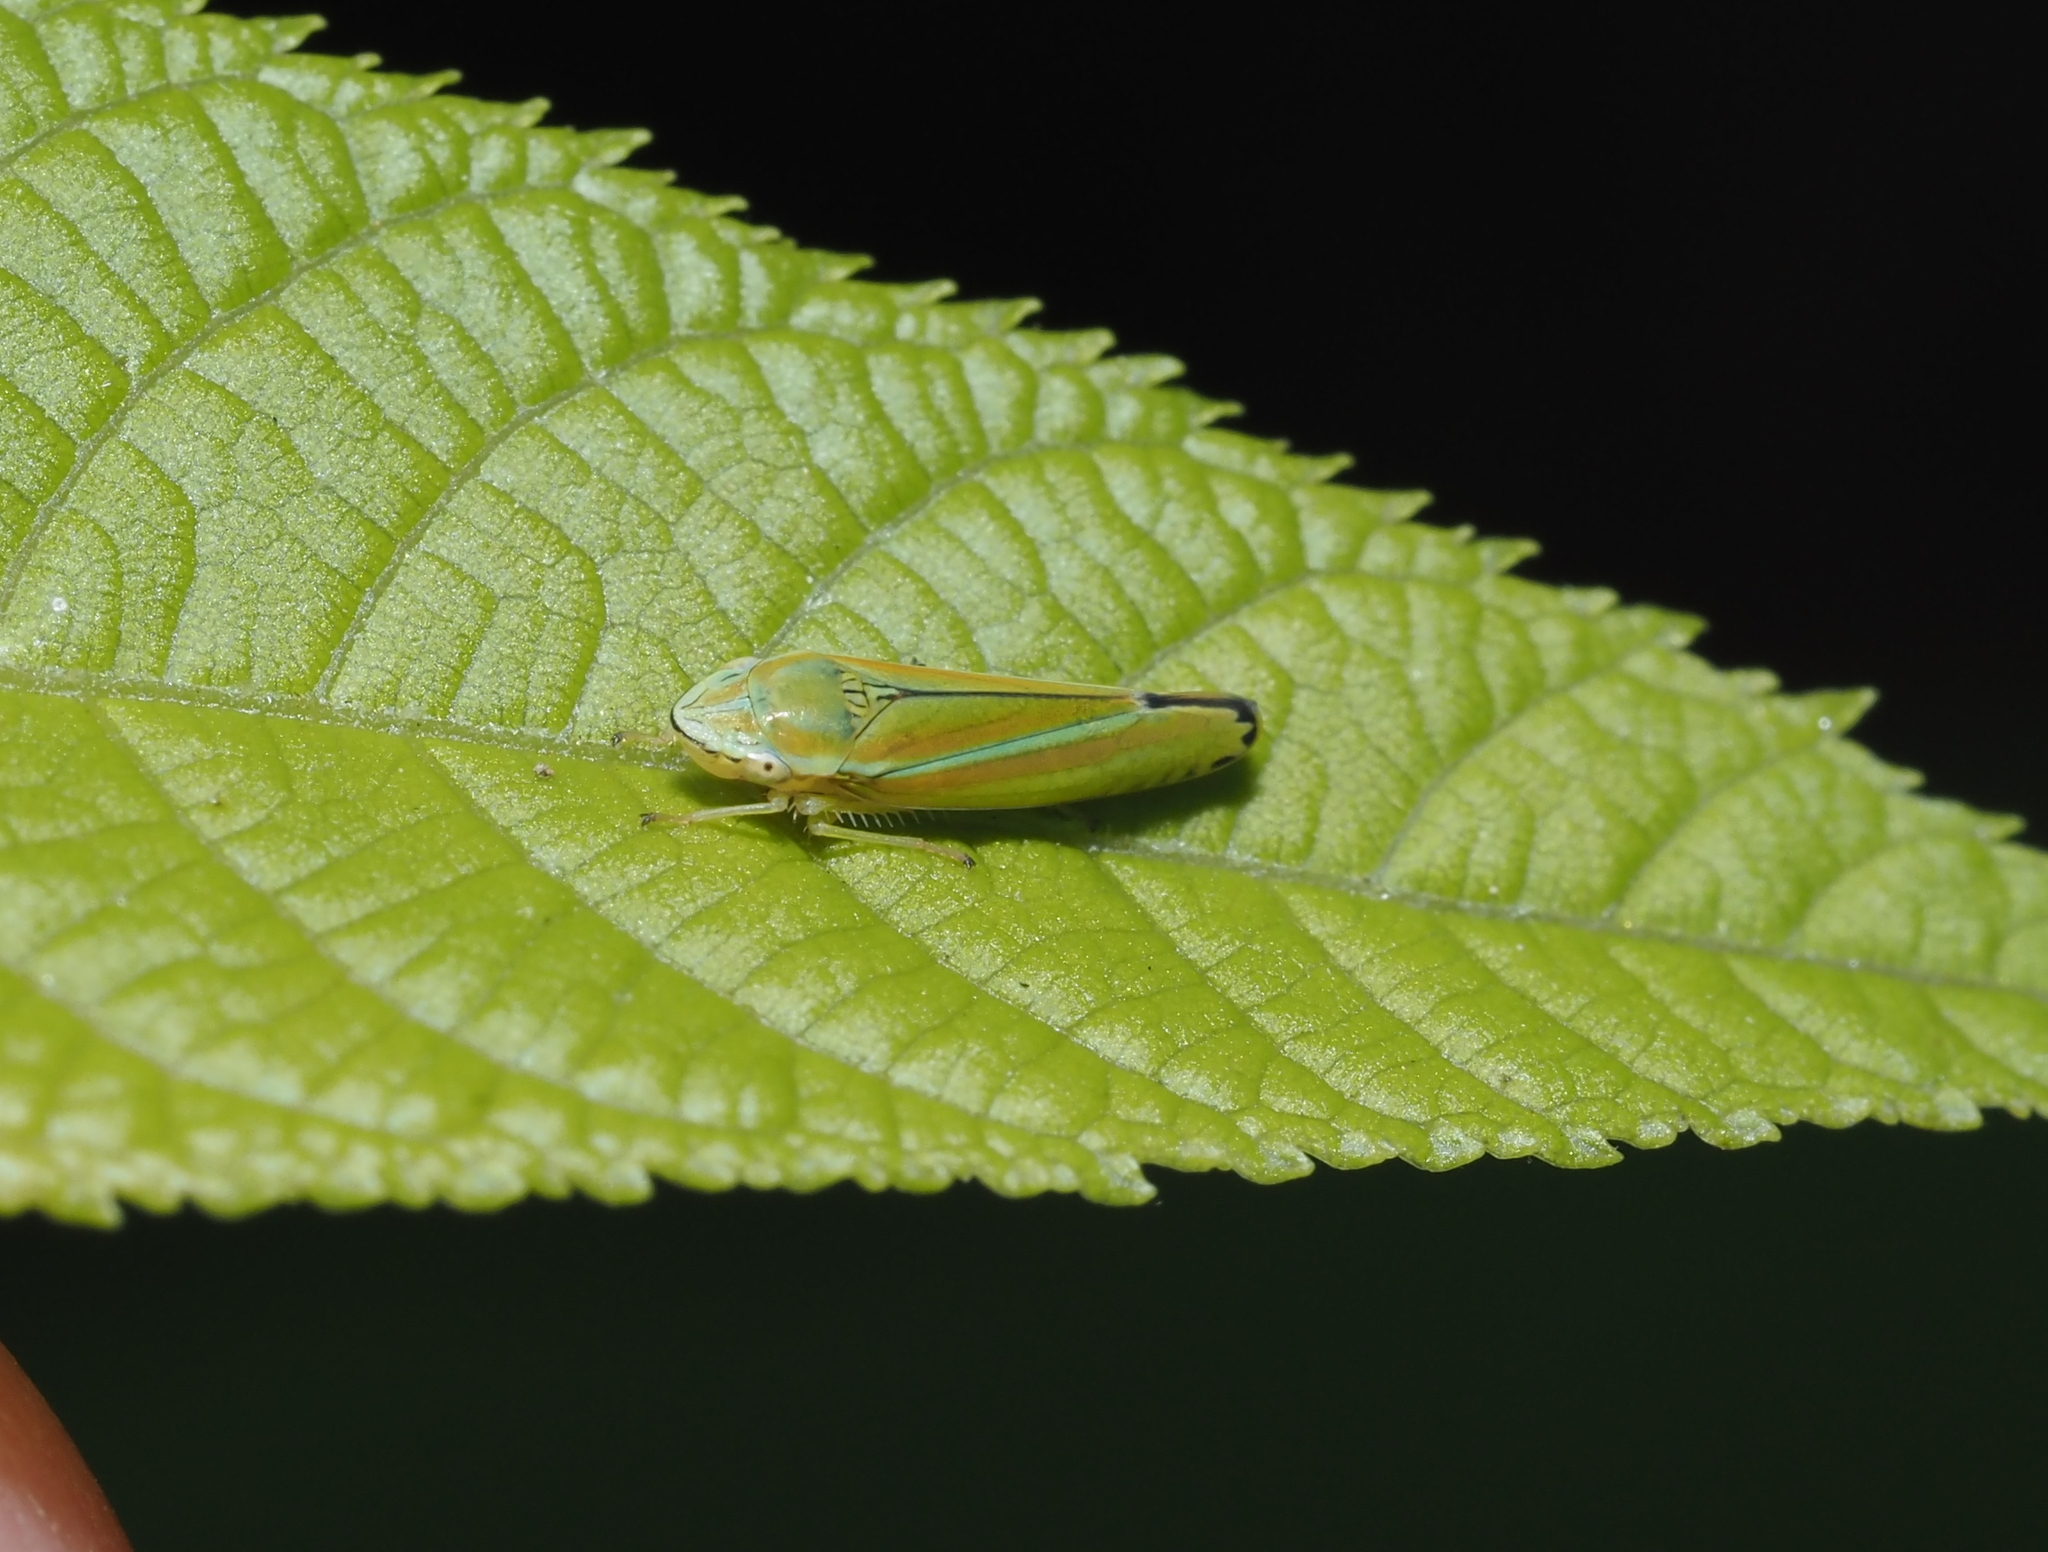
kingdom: Animalia
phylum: Arthropoda
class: Insecta
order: Hemiptera
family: Cicadellidae
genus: Graphocephala
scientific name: Graphocephala versuta
